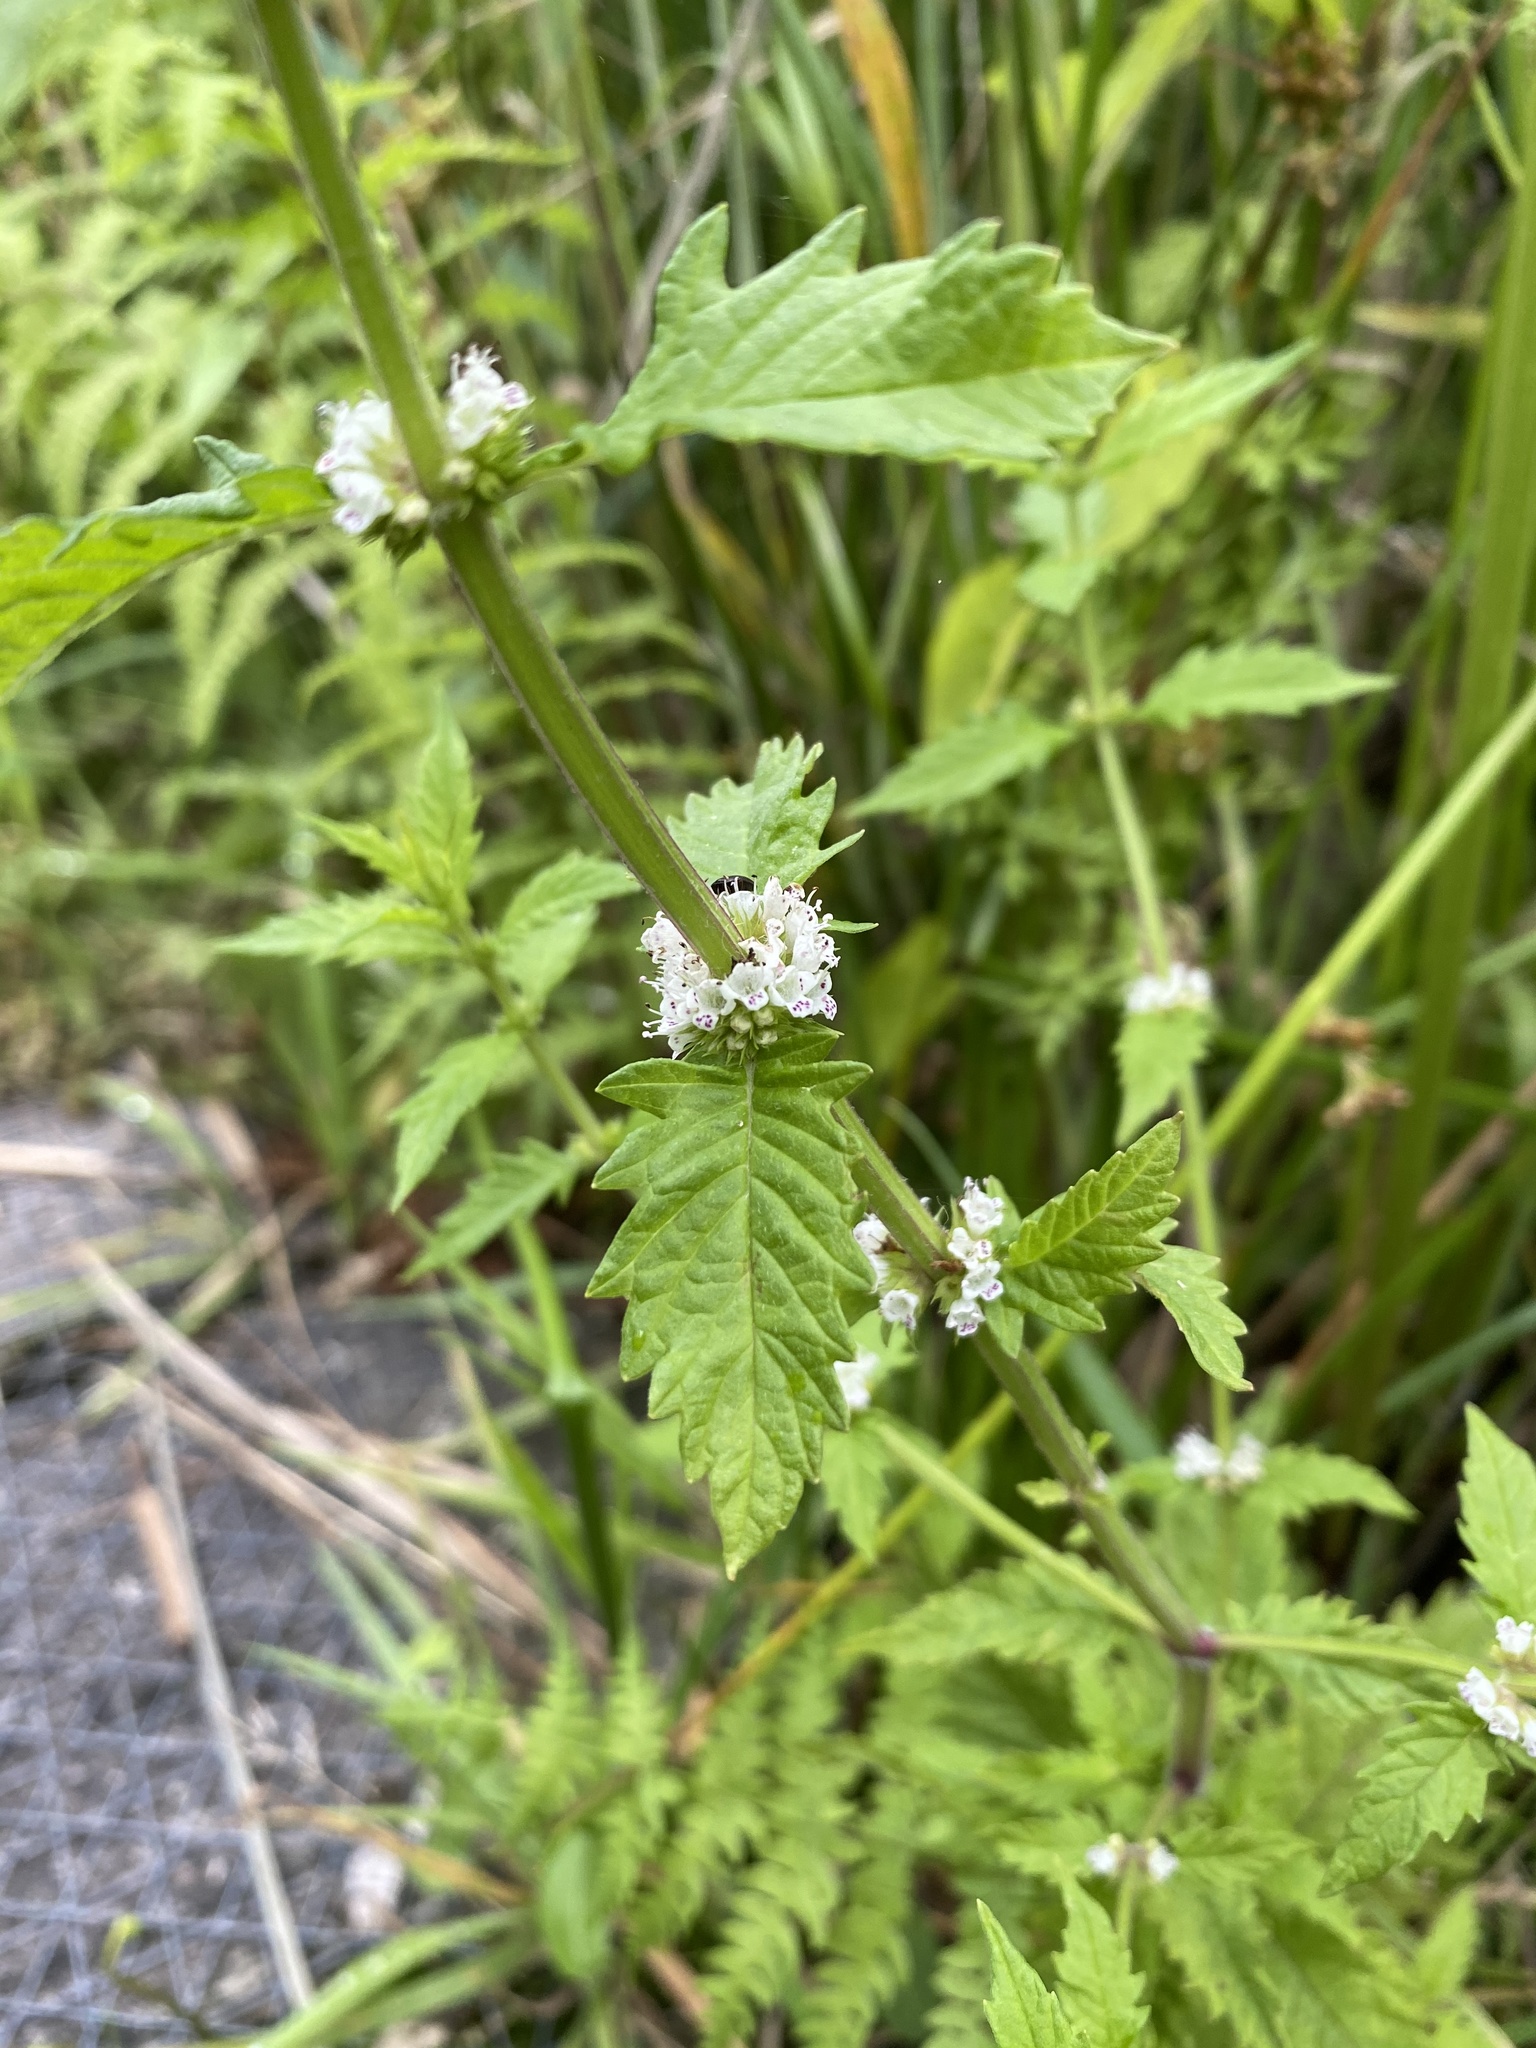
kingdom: Plantae
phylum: Tracheophyta
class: Magnoliopsida
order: Lamiales
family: Lamiaceae
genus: Lycopus
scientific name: Lycopus europaeus
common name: European bugleweed
